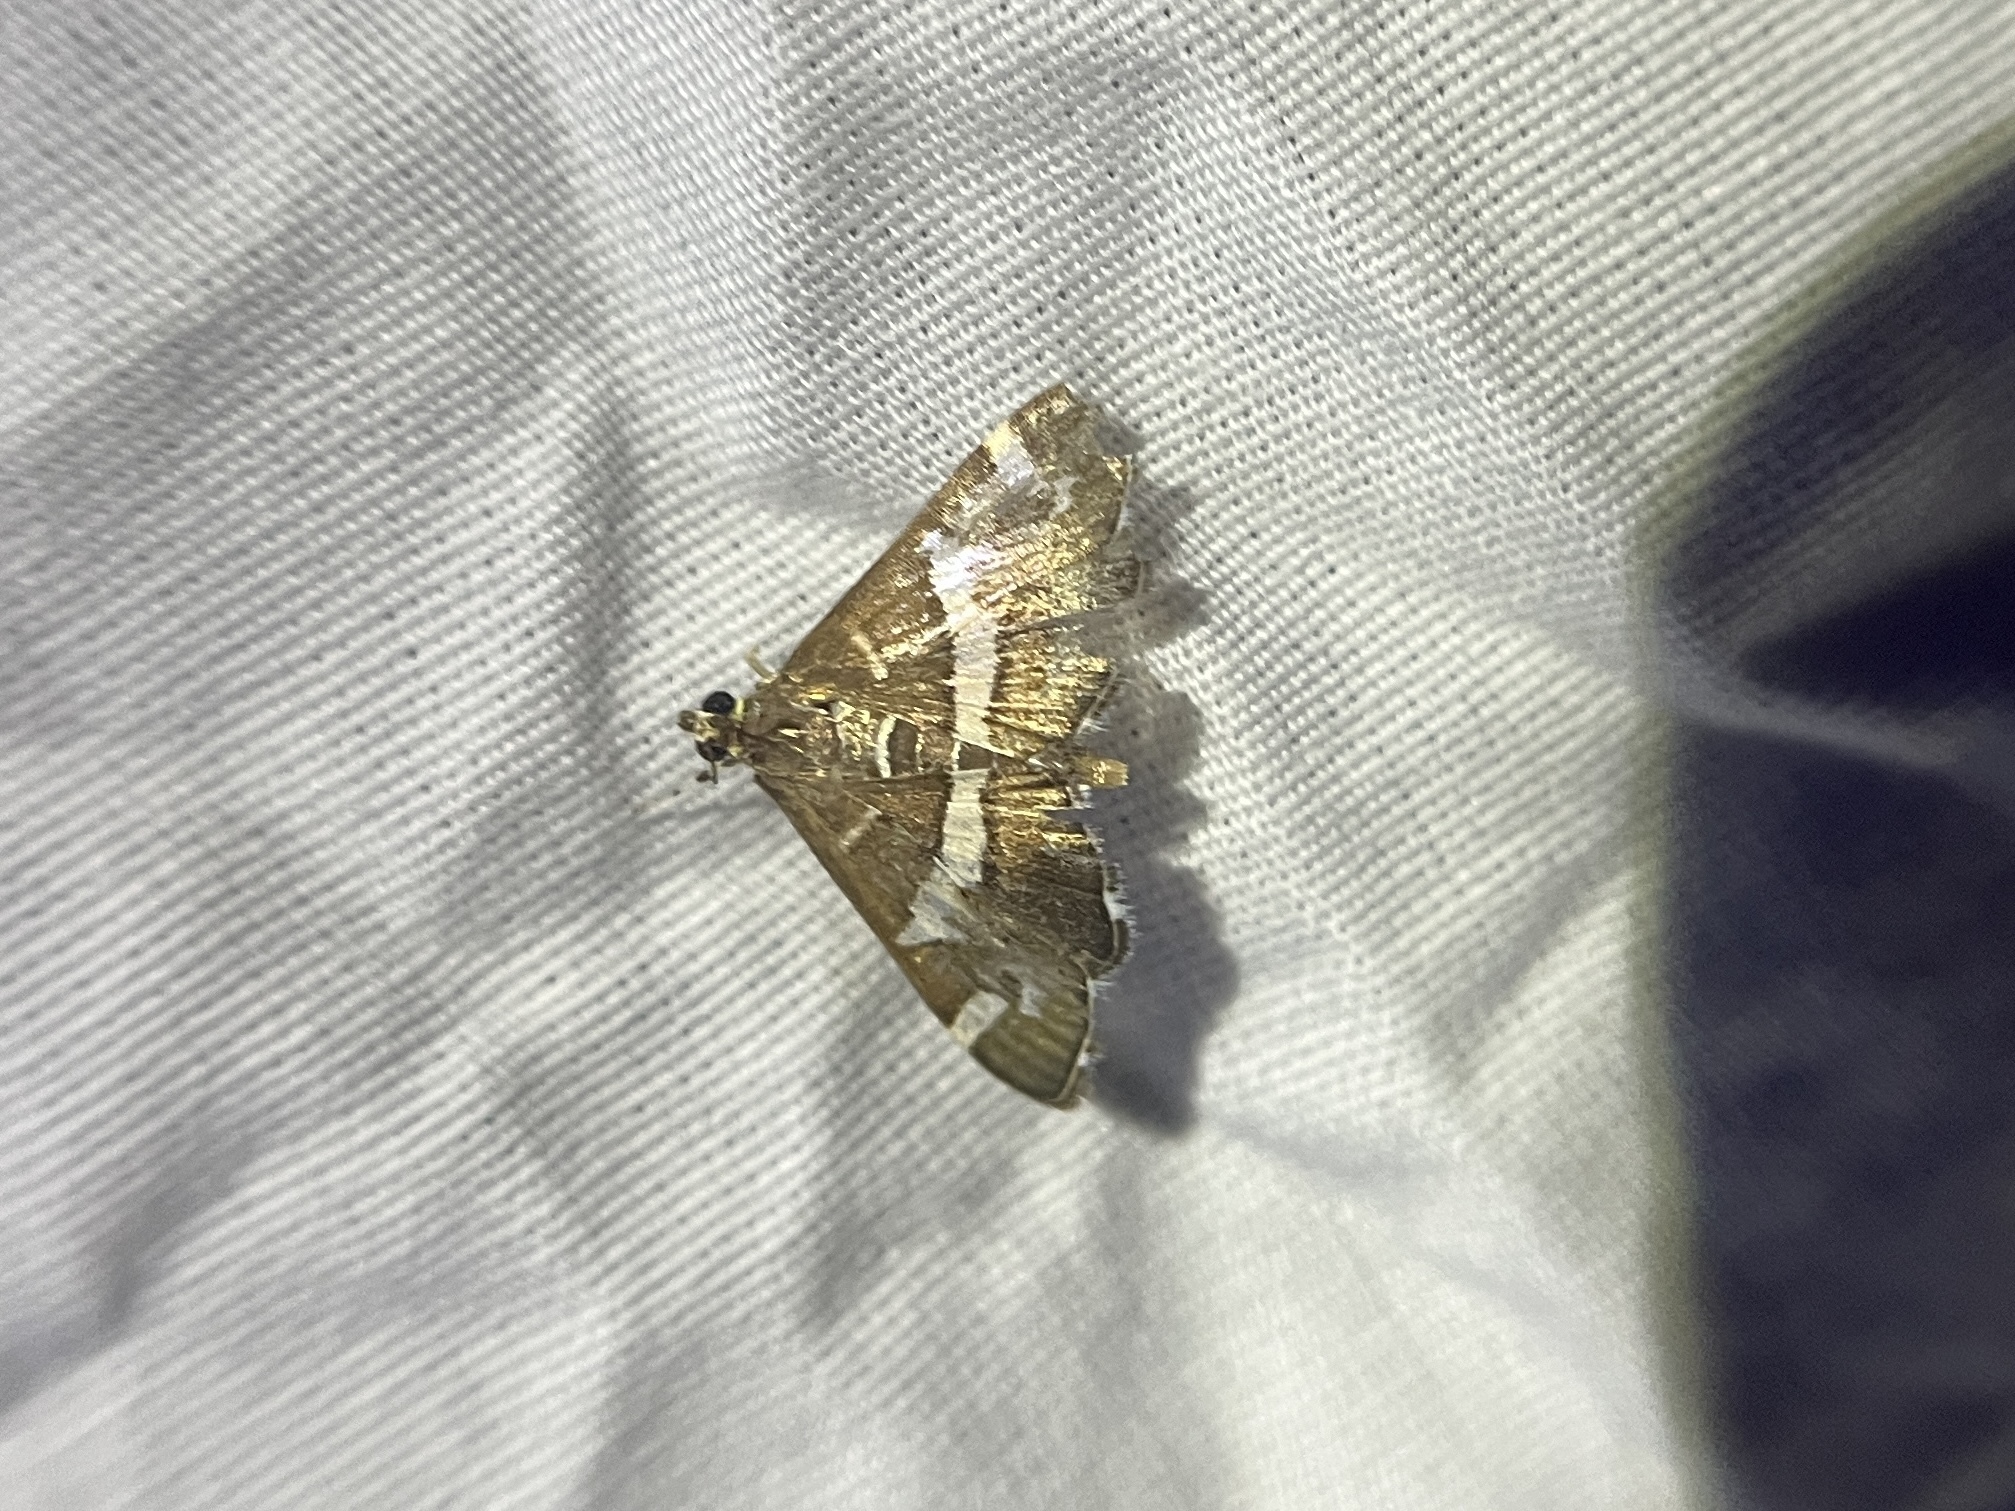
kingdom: Animalia
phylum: Arthropoda
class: Insecta
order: Lepidoptera
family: Crambidae
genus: Spoladea
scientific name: Spoladea recurvalis
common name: Beet webworm moth
